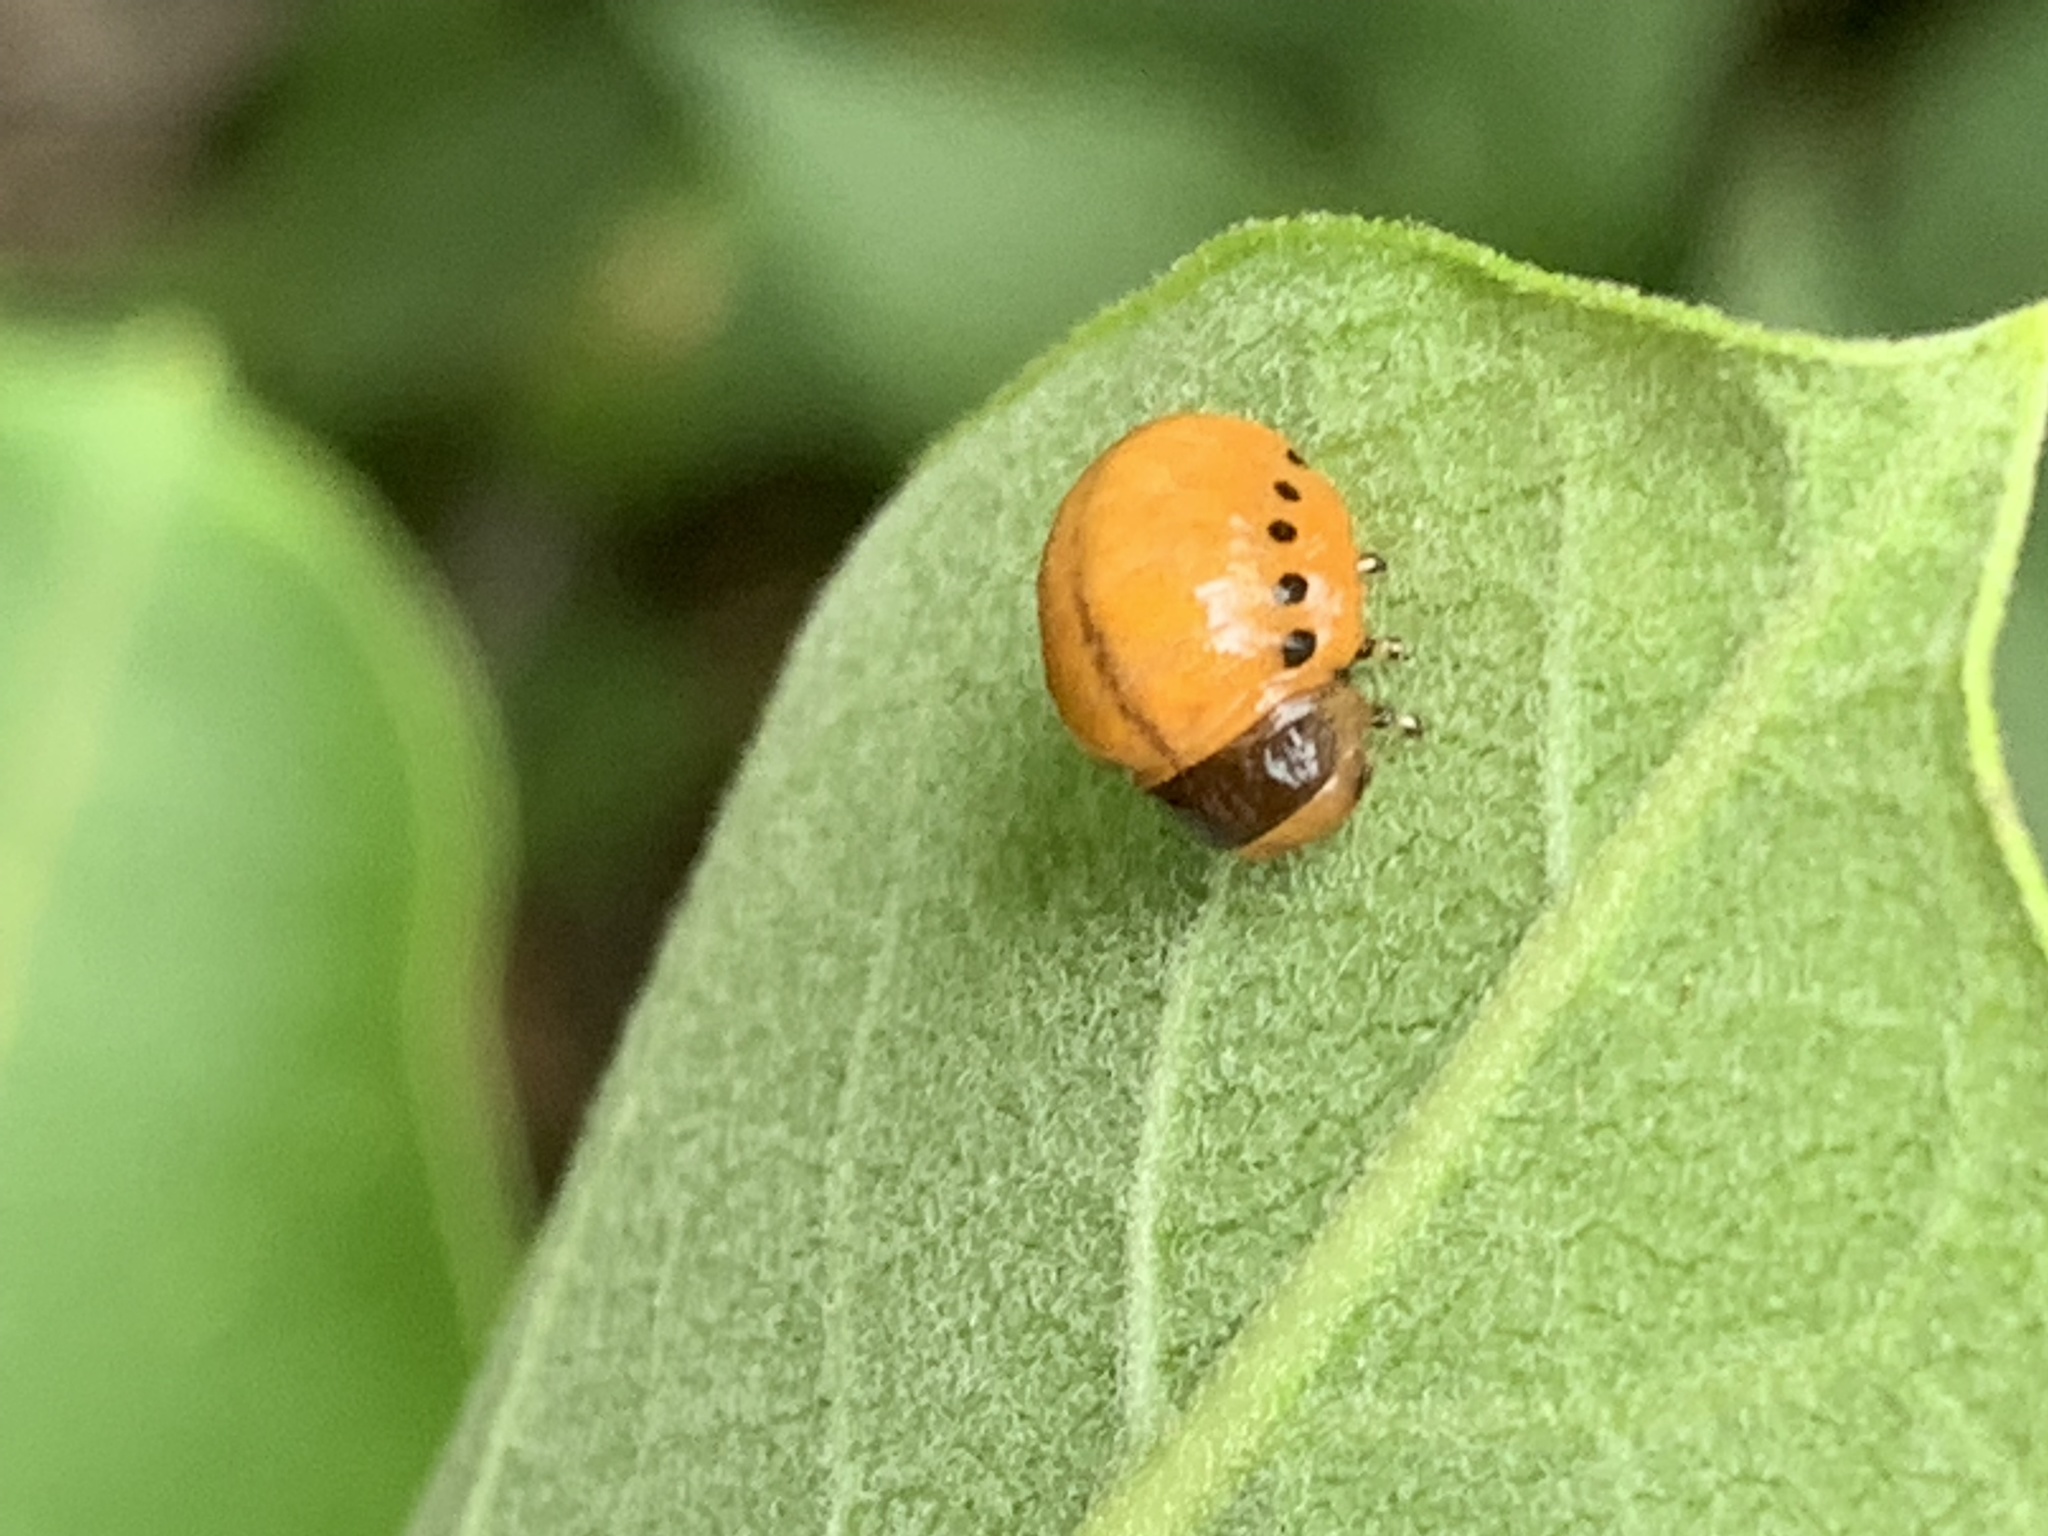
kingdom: Animalia
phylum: Arthropoda
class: Insecta
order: Coleoptera
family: Chrysomelidae
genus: Labidomera
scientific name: Labidomera clivicollis
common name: Swamp milkweed leaf beetle
